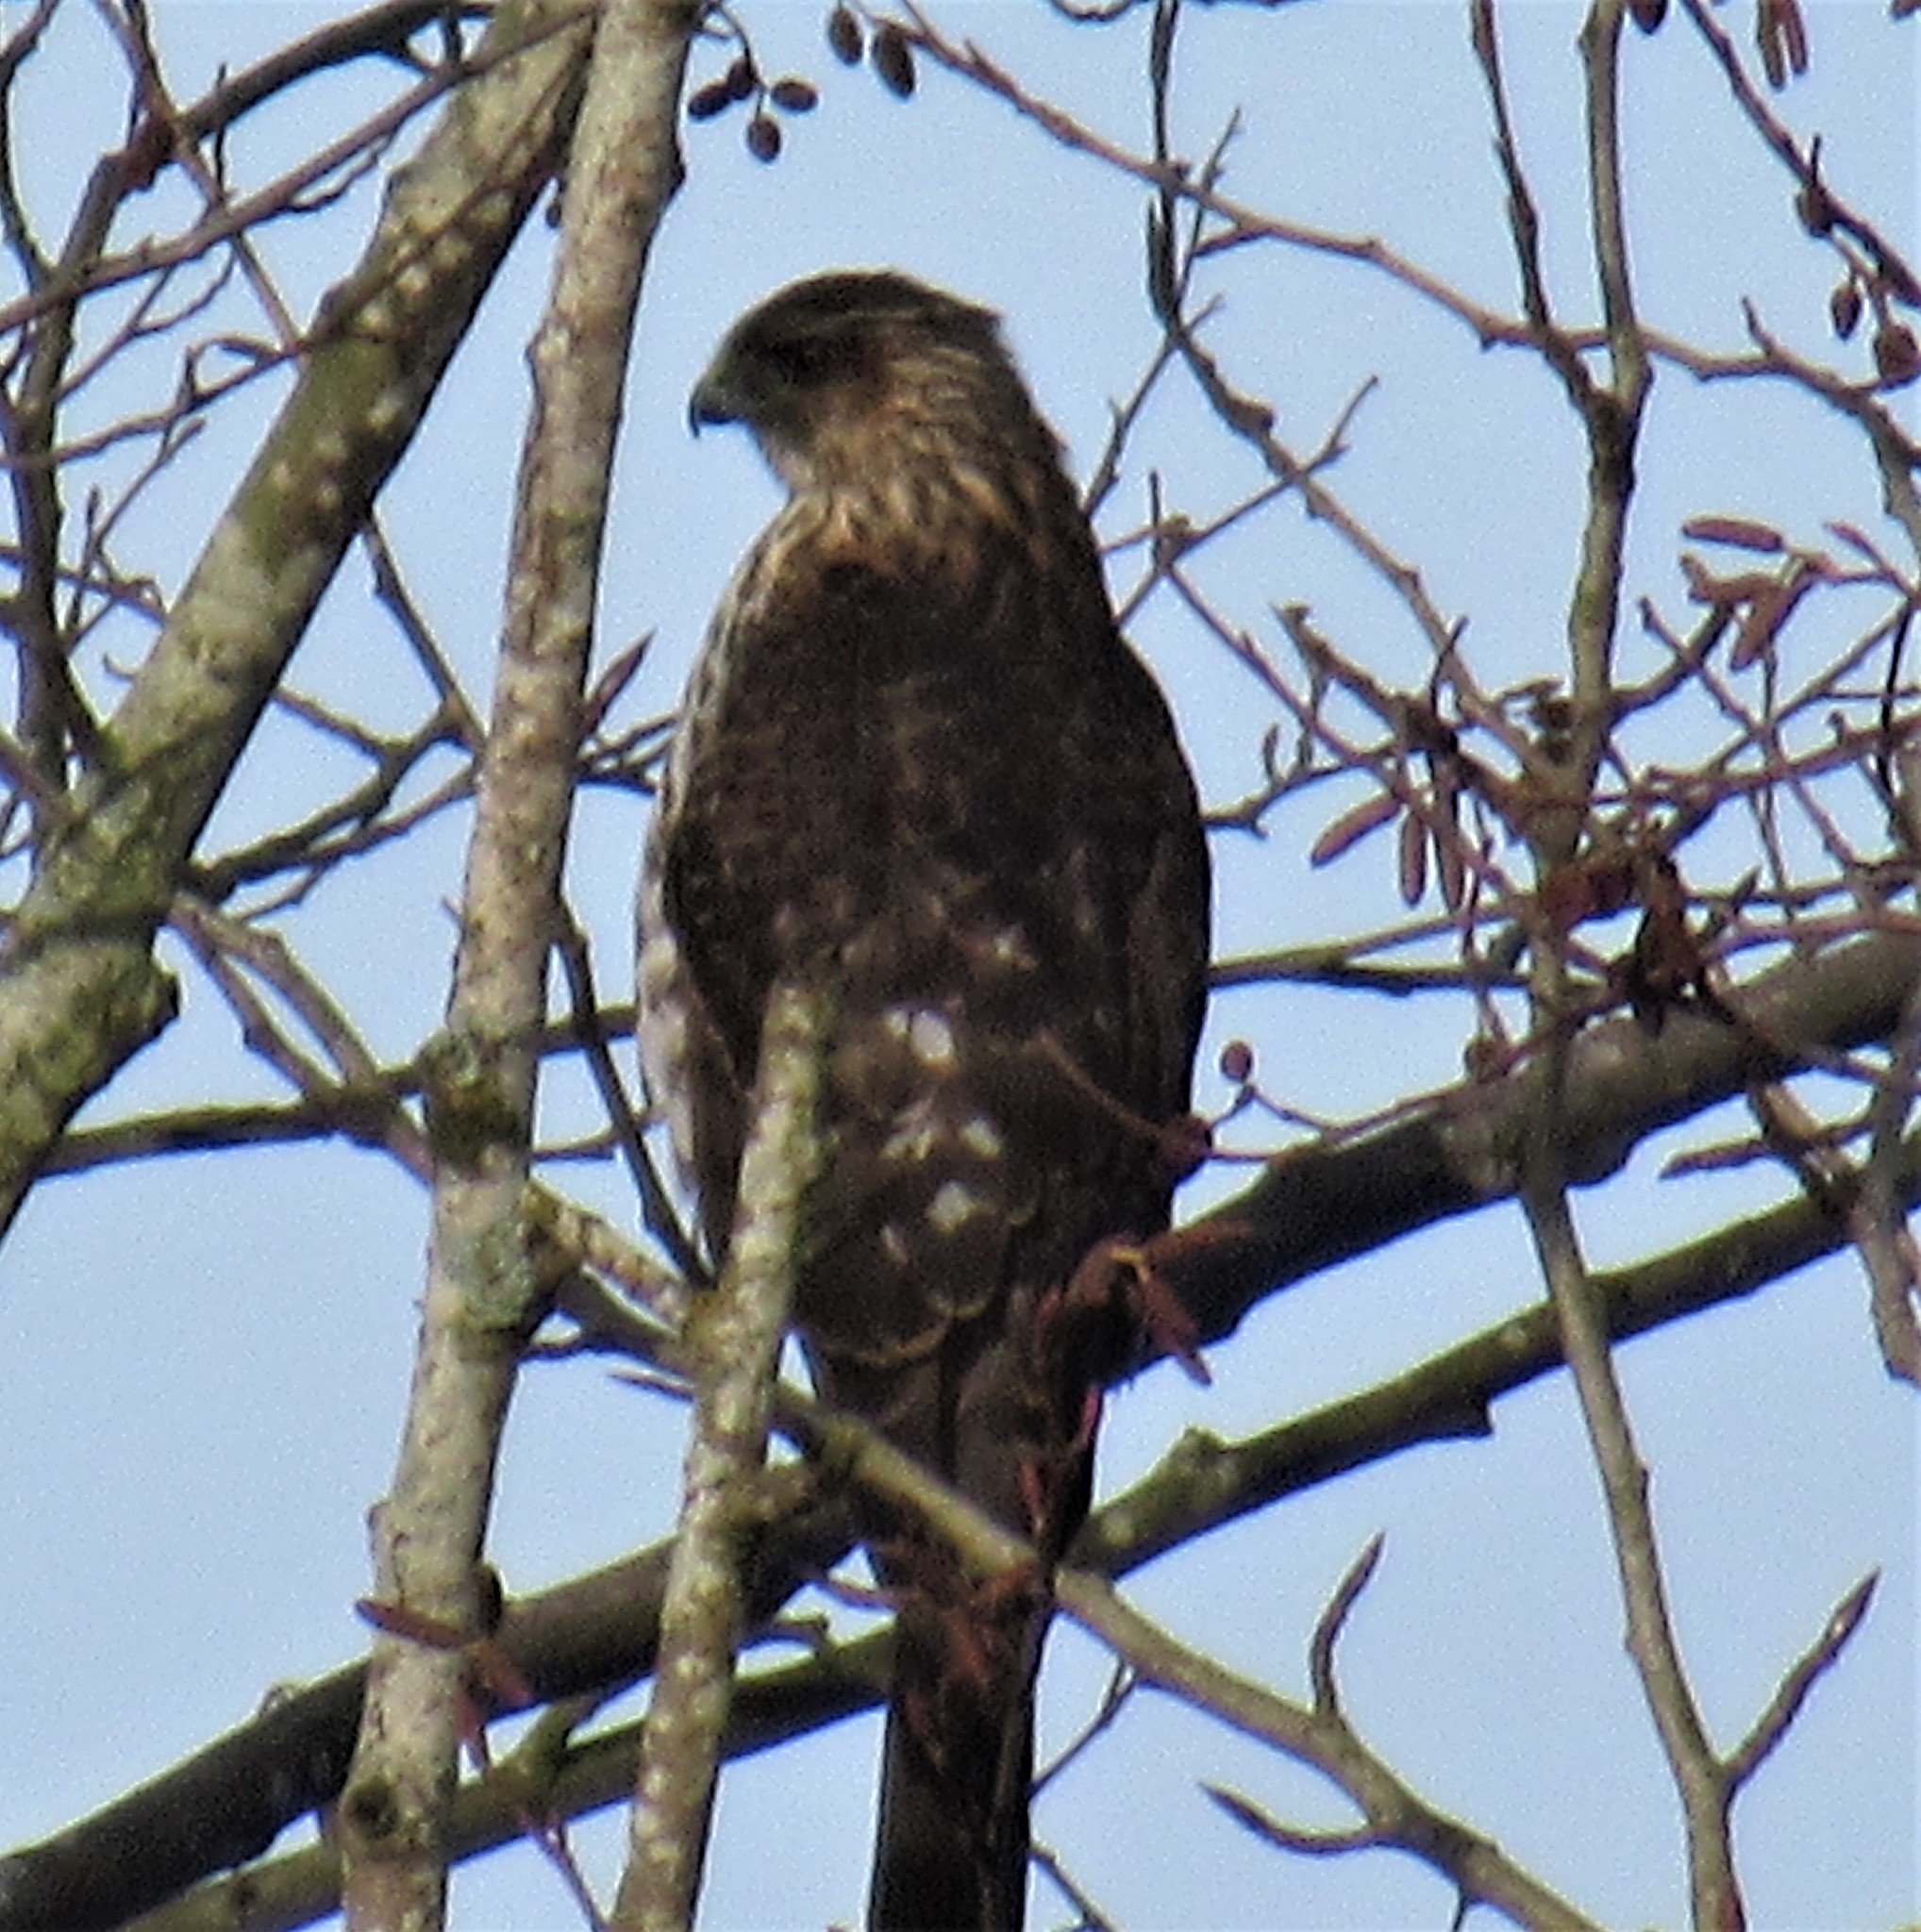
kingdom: Animalia
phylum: Chordata
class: Aves
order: Accipitriformes
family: Accipitridae
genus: Accipiter
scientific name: Accipiter cooperii
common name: Cooper's hawk
